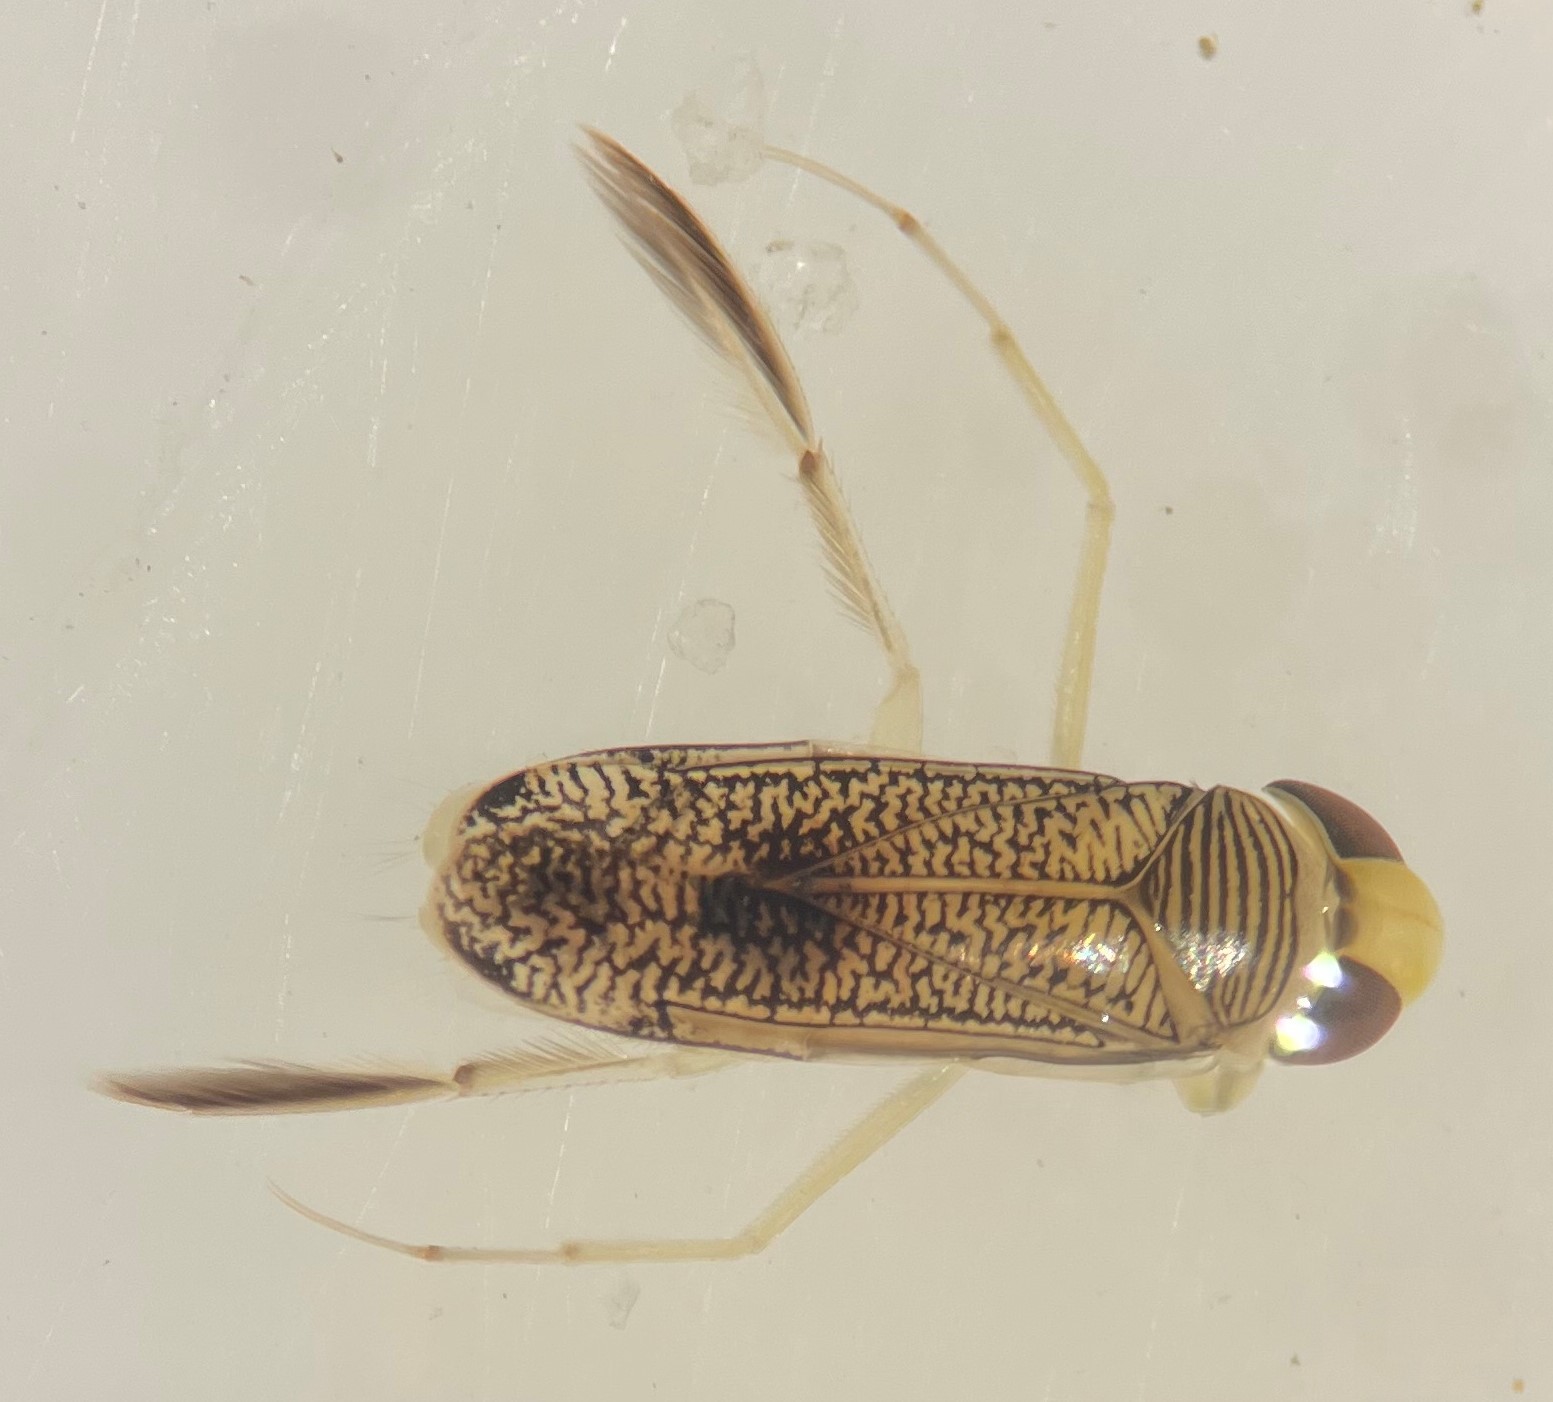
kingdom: Animalia
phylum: Arthropoda
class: Insecta
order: Hemiptera
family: Corixidae
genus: Trichocorixa
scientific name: Trichocorixa calva
